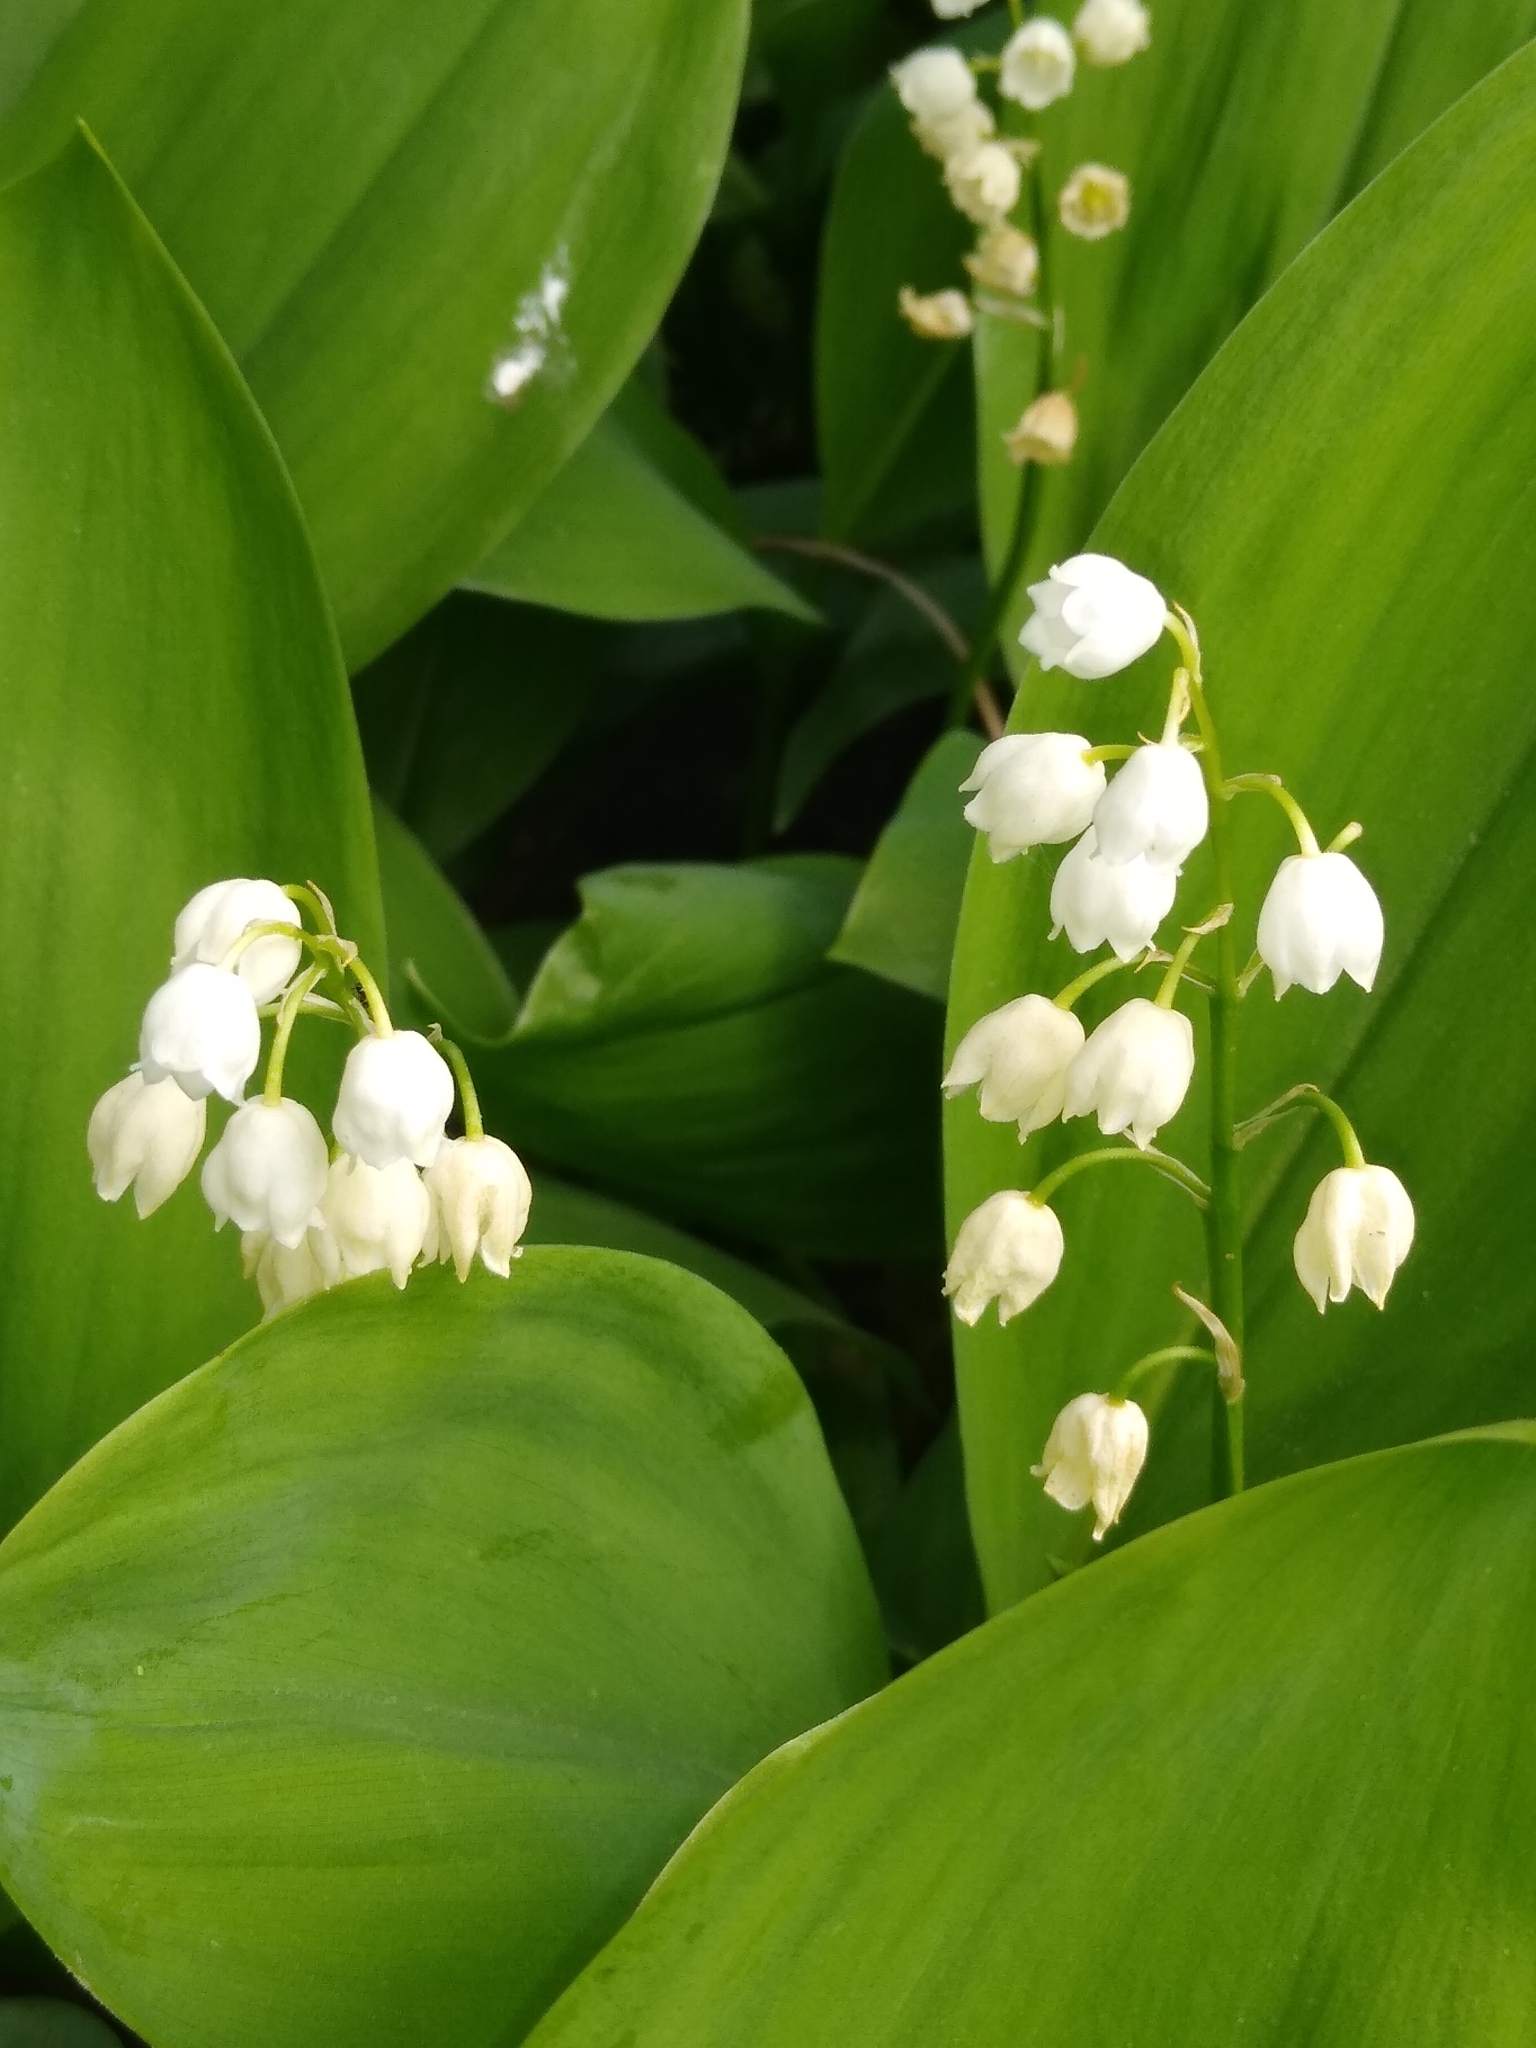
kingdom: Plantae
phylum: Tracheophyta
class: Liliopsida
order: Asparagales
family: Asparagaceae
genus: Convallaria
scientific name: Convallaria majalis
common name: Lily-of-the-valley
